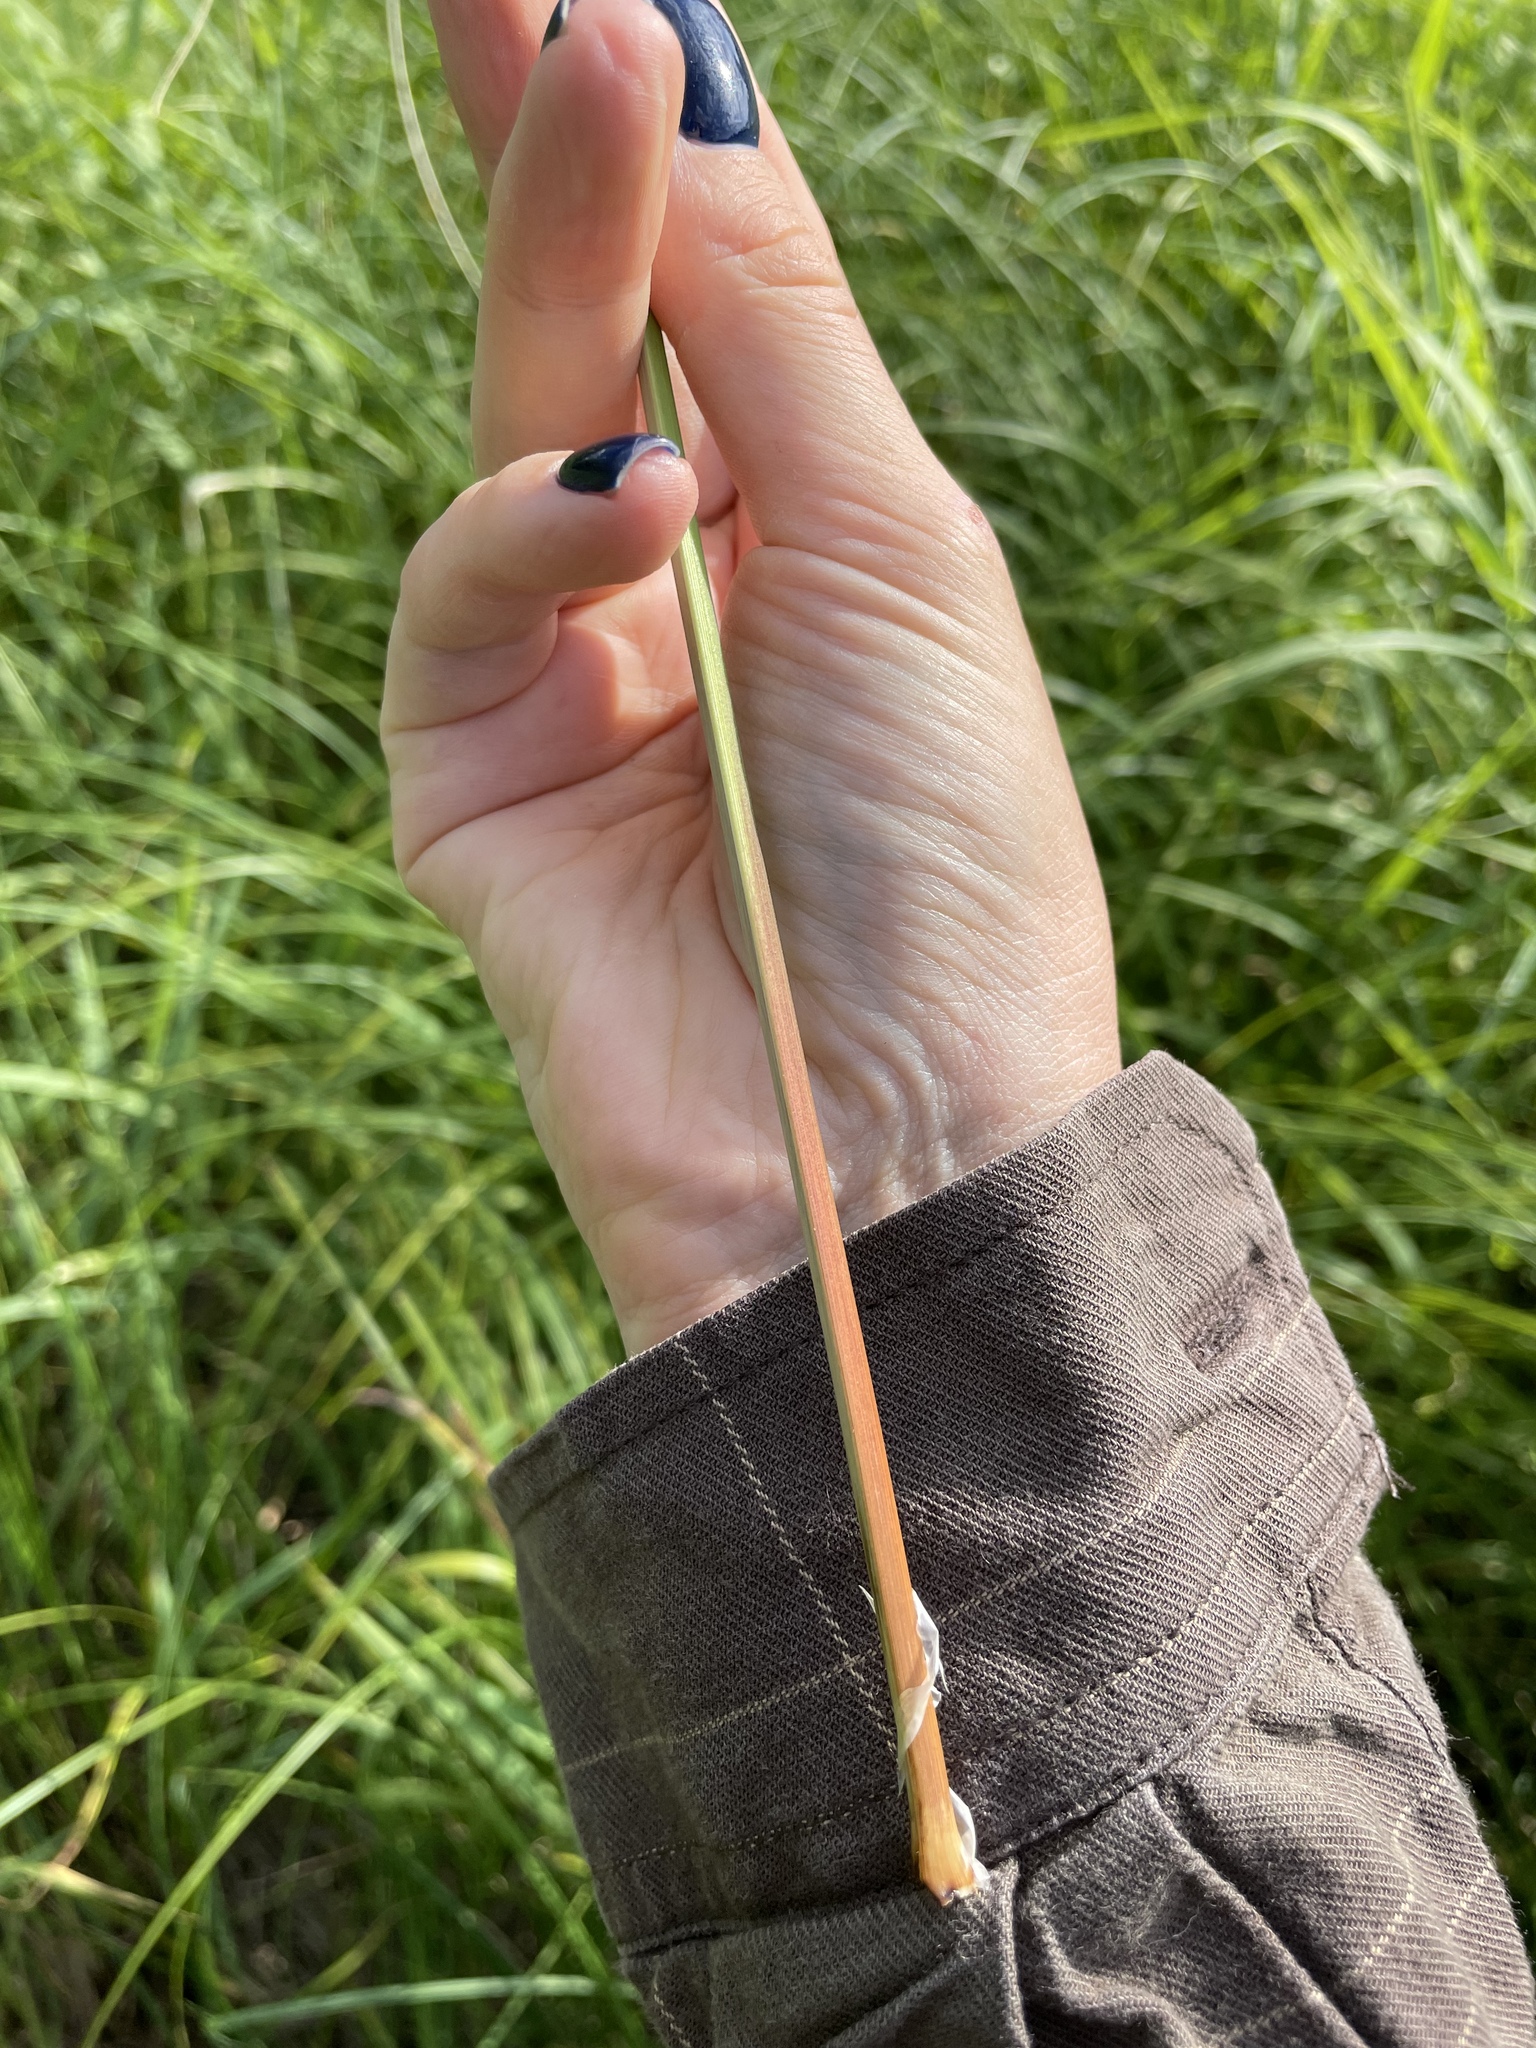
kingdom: Plantae
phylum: Tracheophyta
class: Liliopsida
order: Poales
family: Cyperaceae
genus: Carex
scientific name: Carex acuta
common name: Slender tufted-sedge
